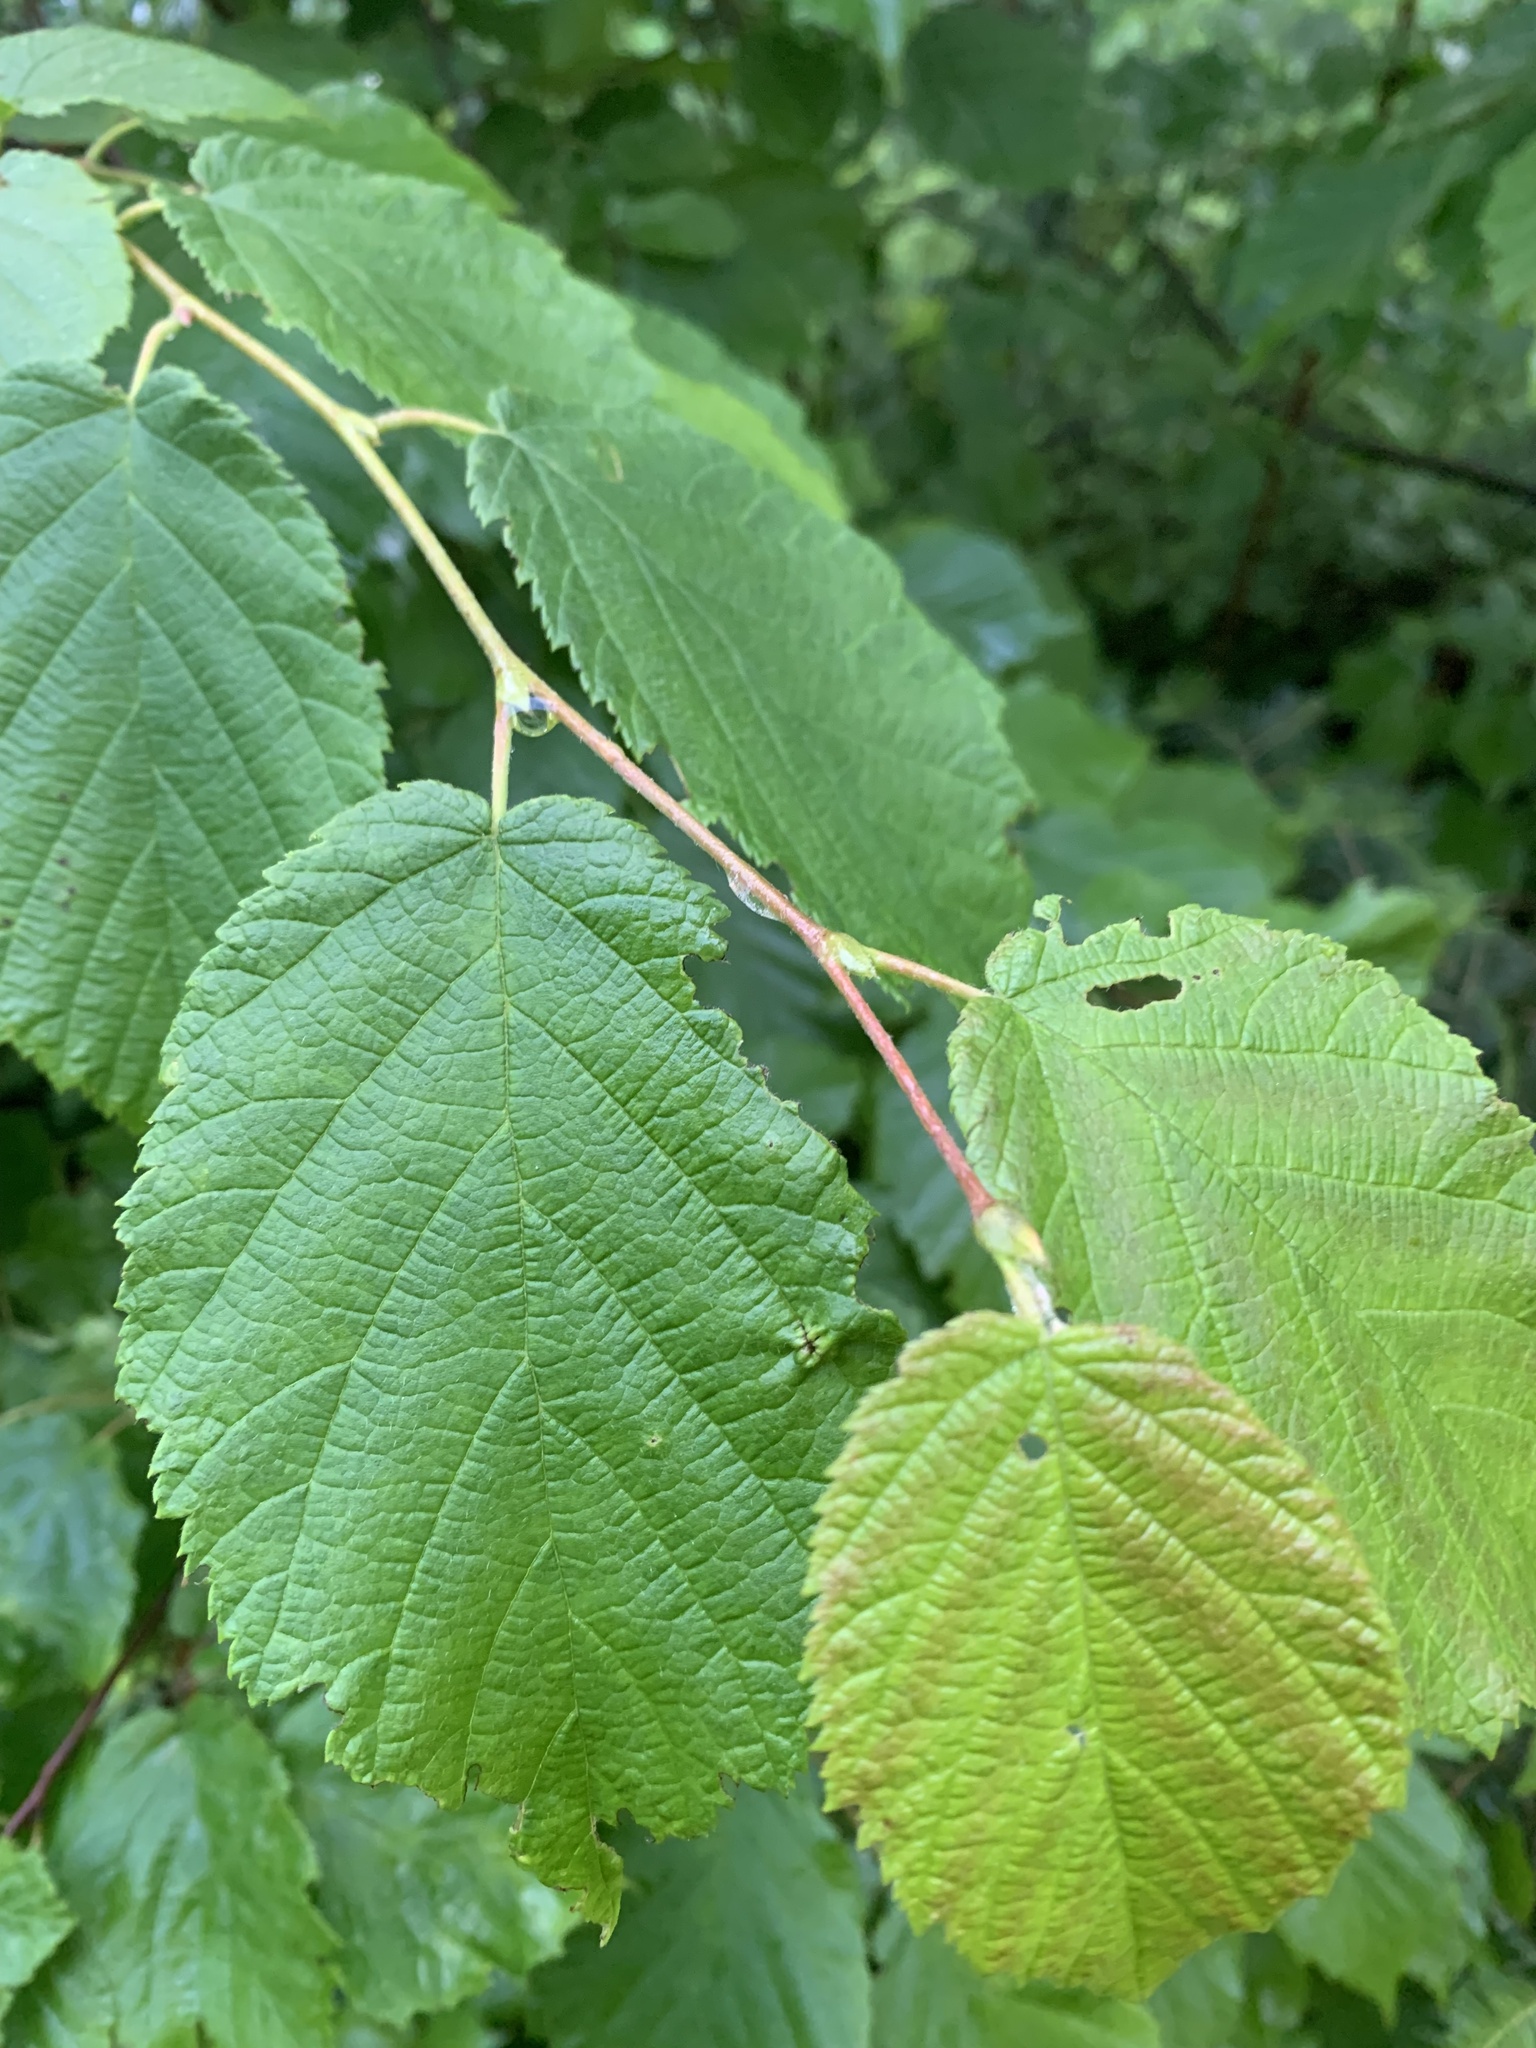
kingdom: Plantae
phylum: Tracheophyta
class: Magnoliopsida
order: Fagales
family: Betulaceae
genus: Corylus
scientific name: Corylus cornuta
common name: Beaked hazel
